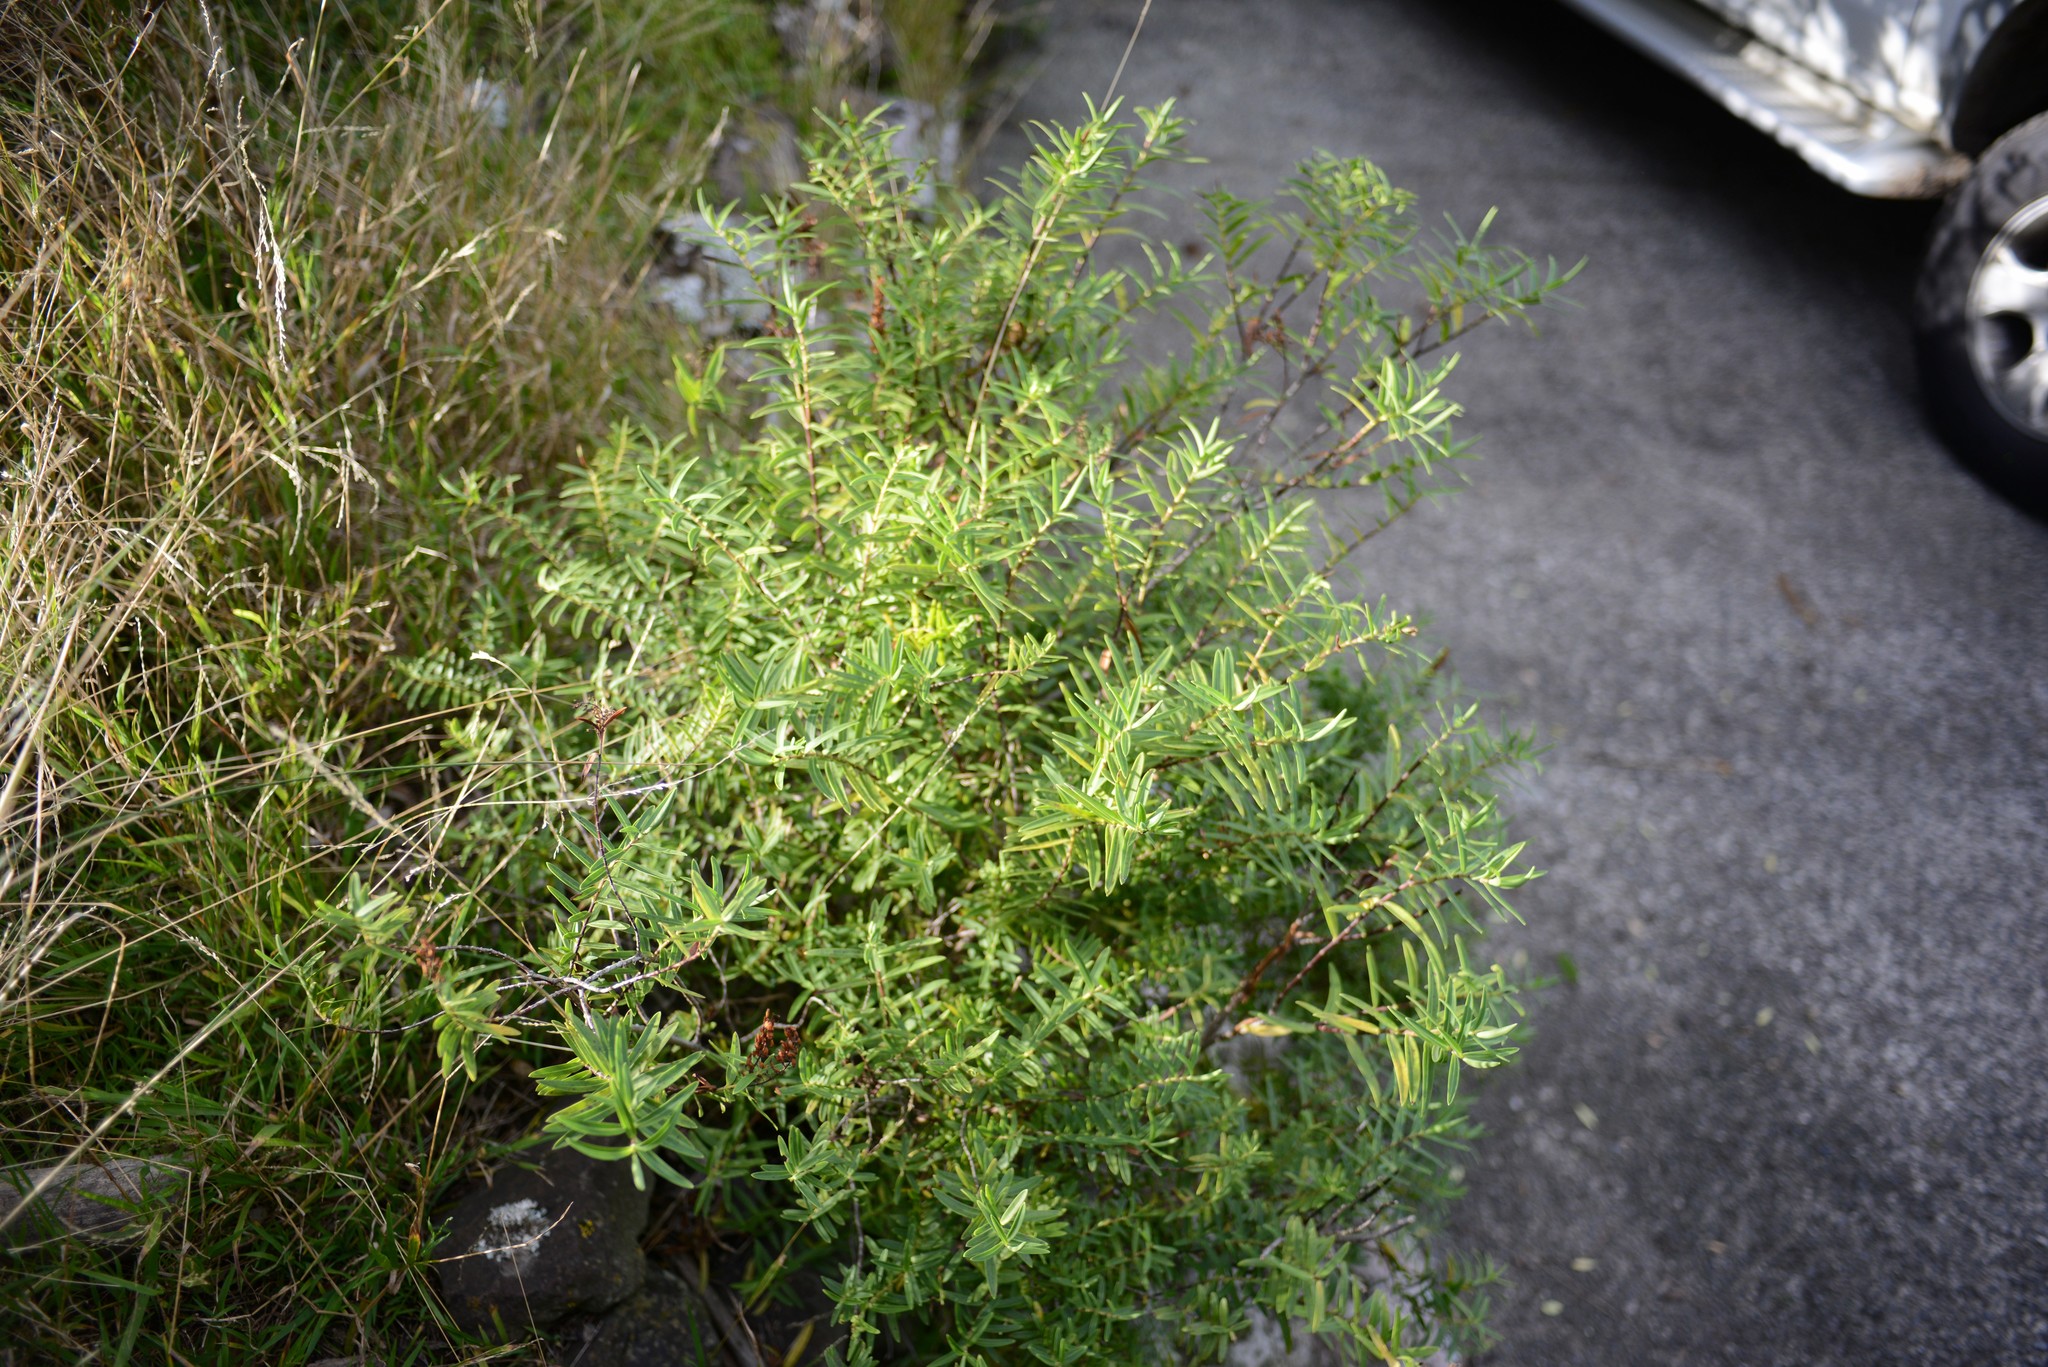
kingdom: Plantae
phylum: Tracheophyta
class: Magnoliopsida
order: Lamiales
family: Plantaginaceae
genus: Veronica
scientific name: Veronica strictissima
